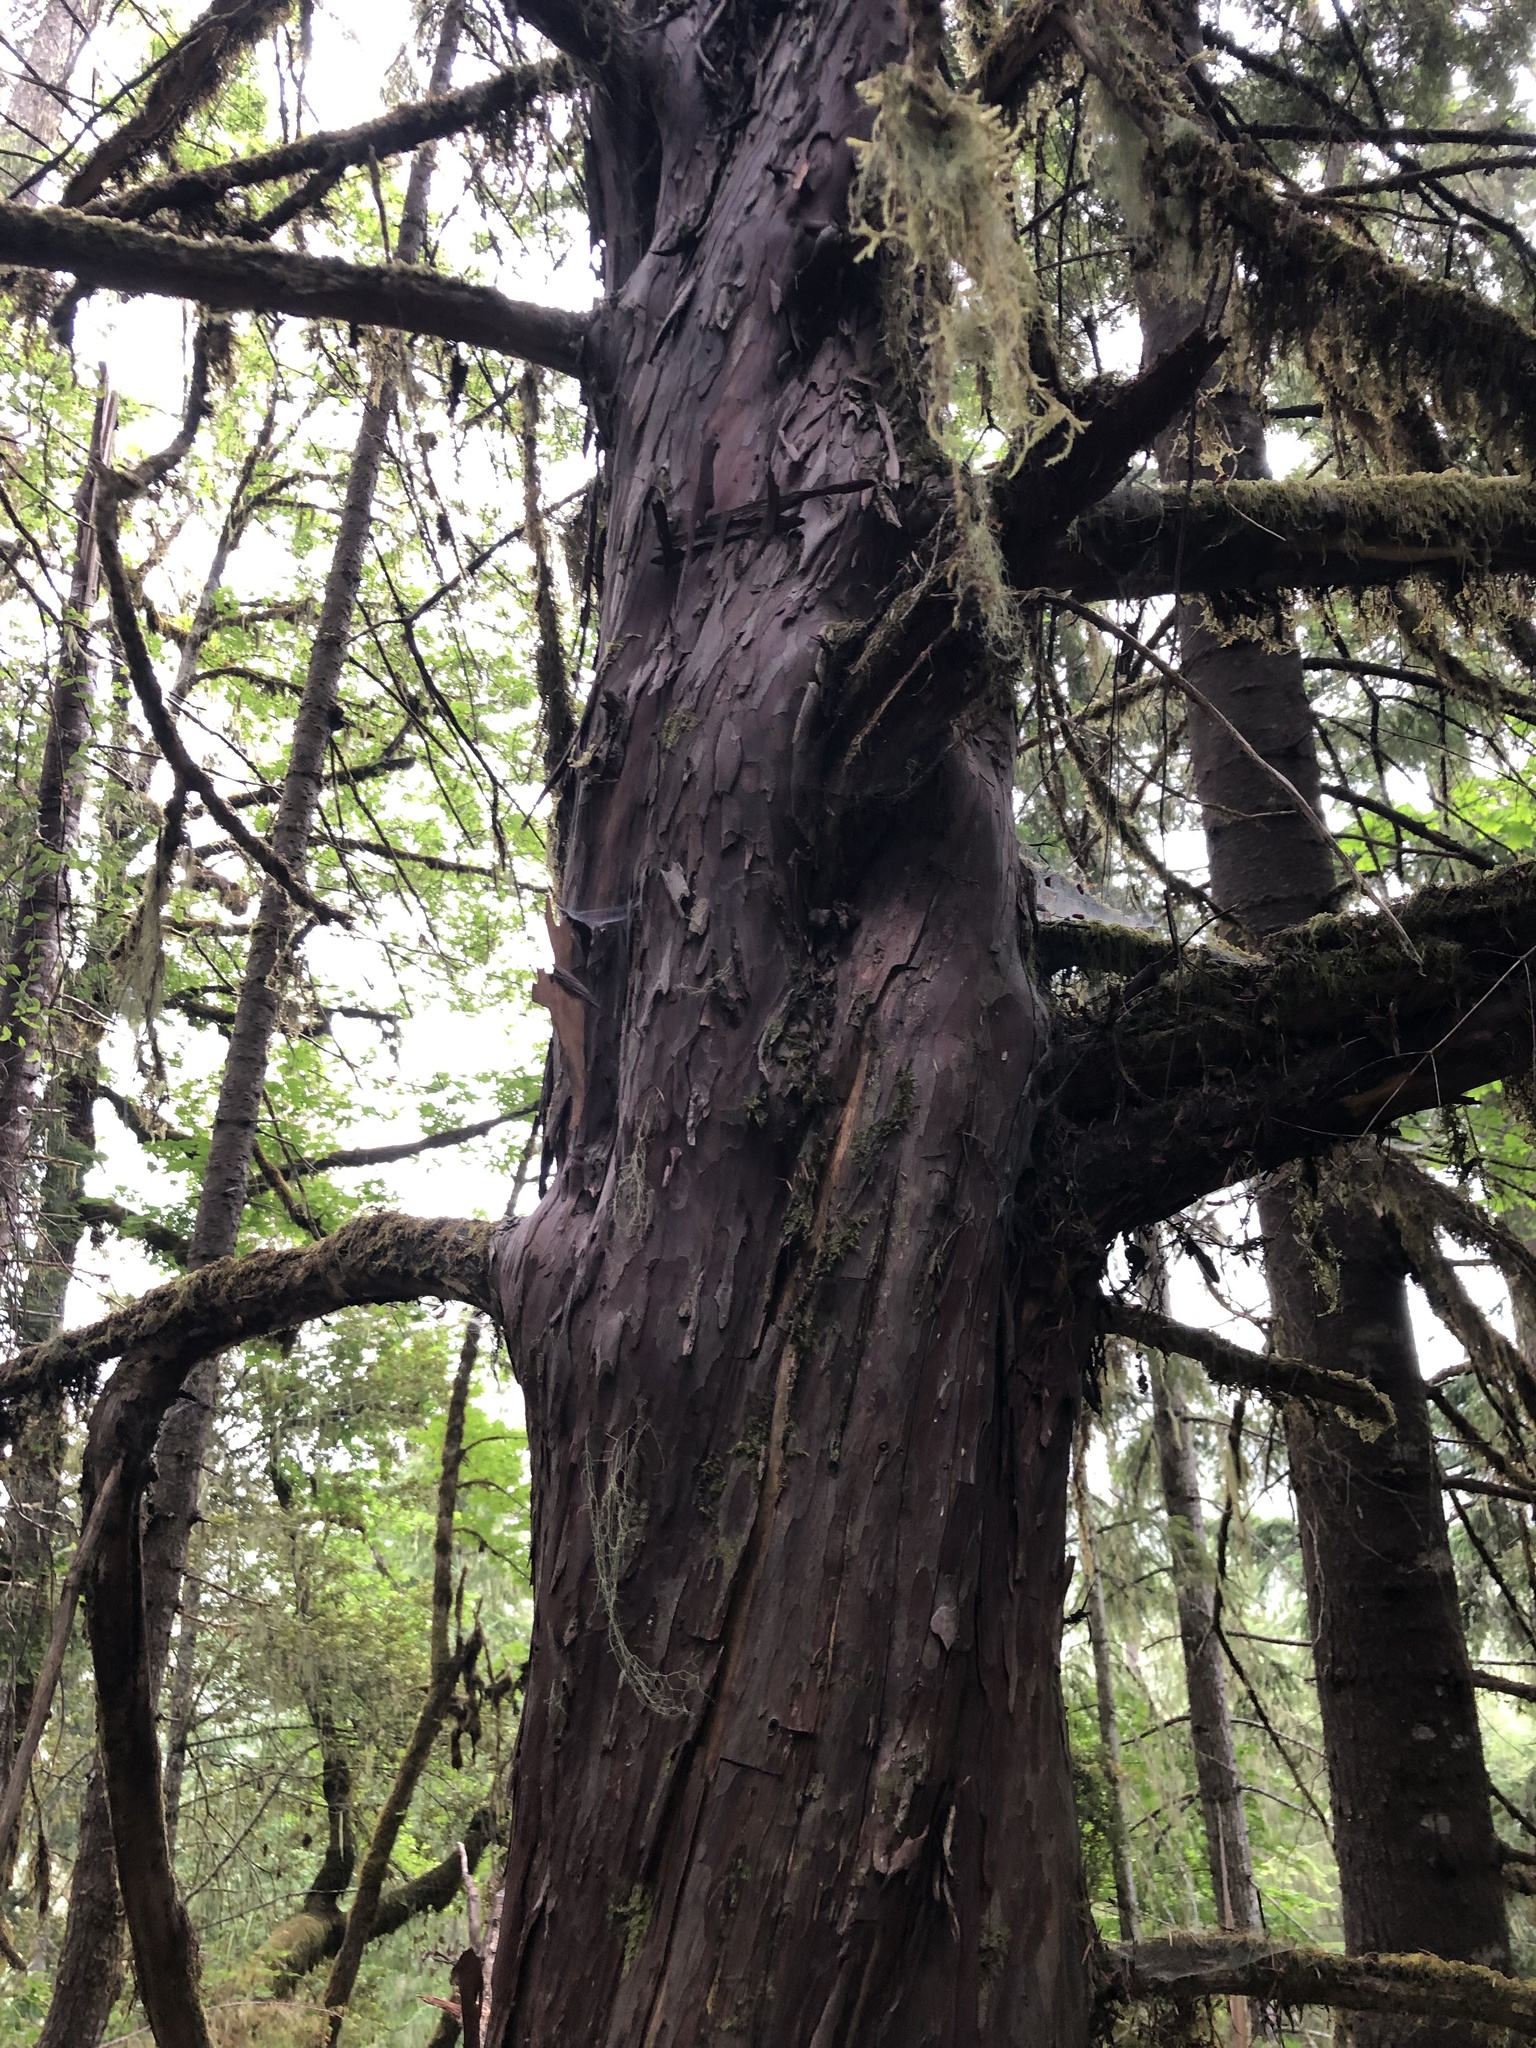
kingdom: Plantae
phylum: Tracheophyta
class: Pinopsida
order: Pinales
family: Taxaceae
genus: Taxus
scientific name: Taxus brevifolia
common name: Pacific yew
